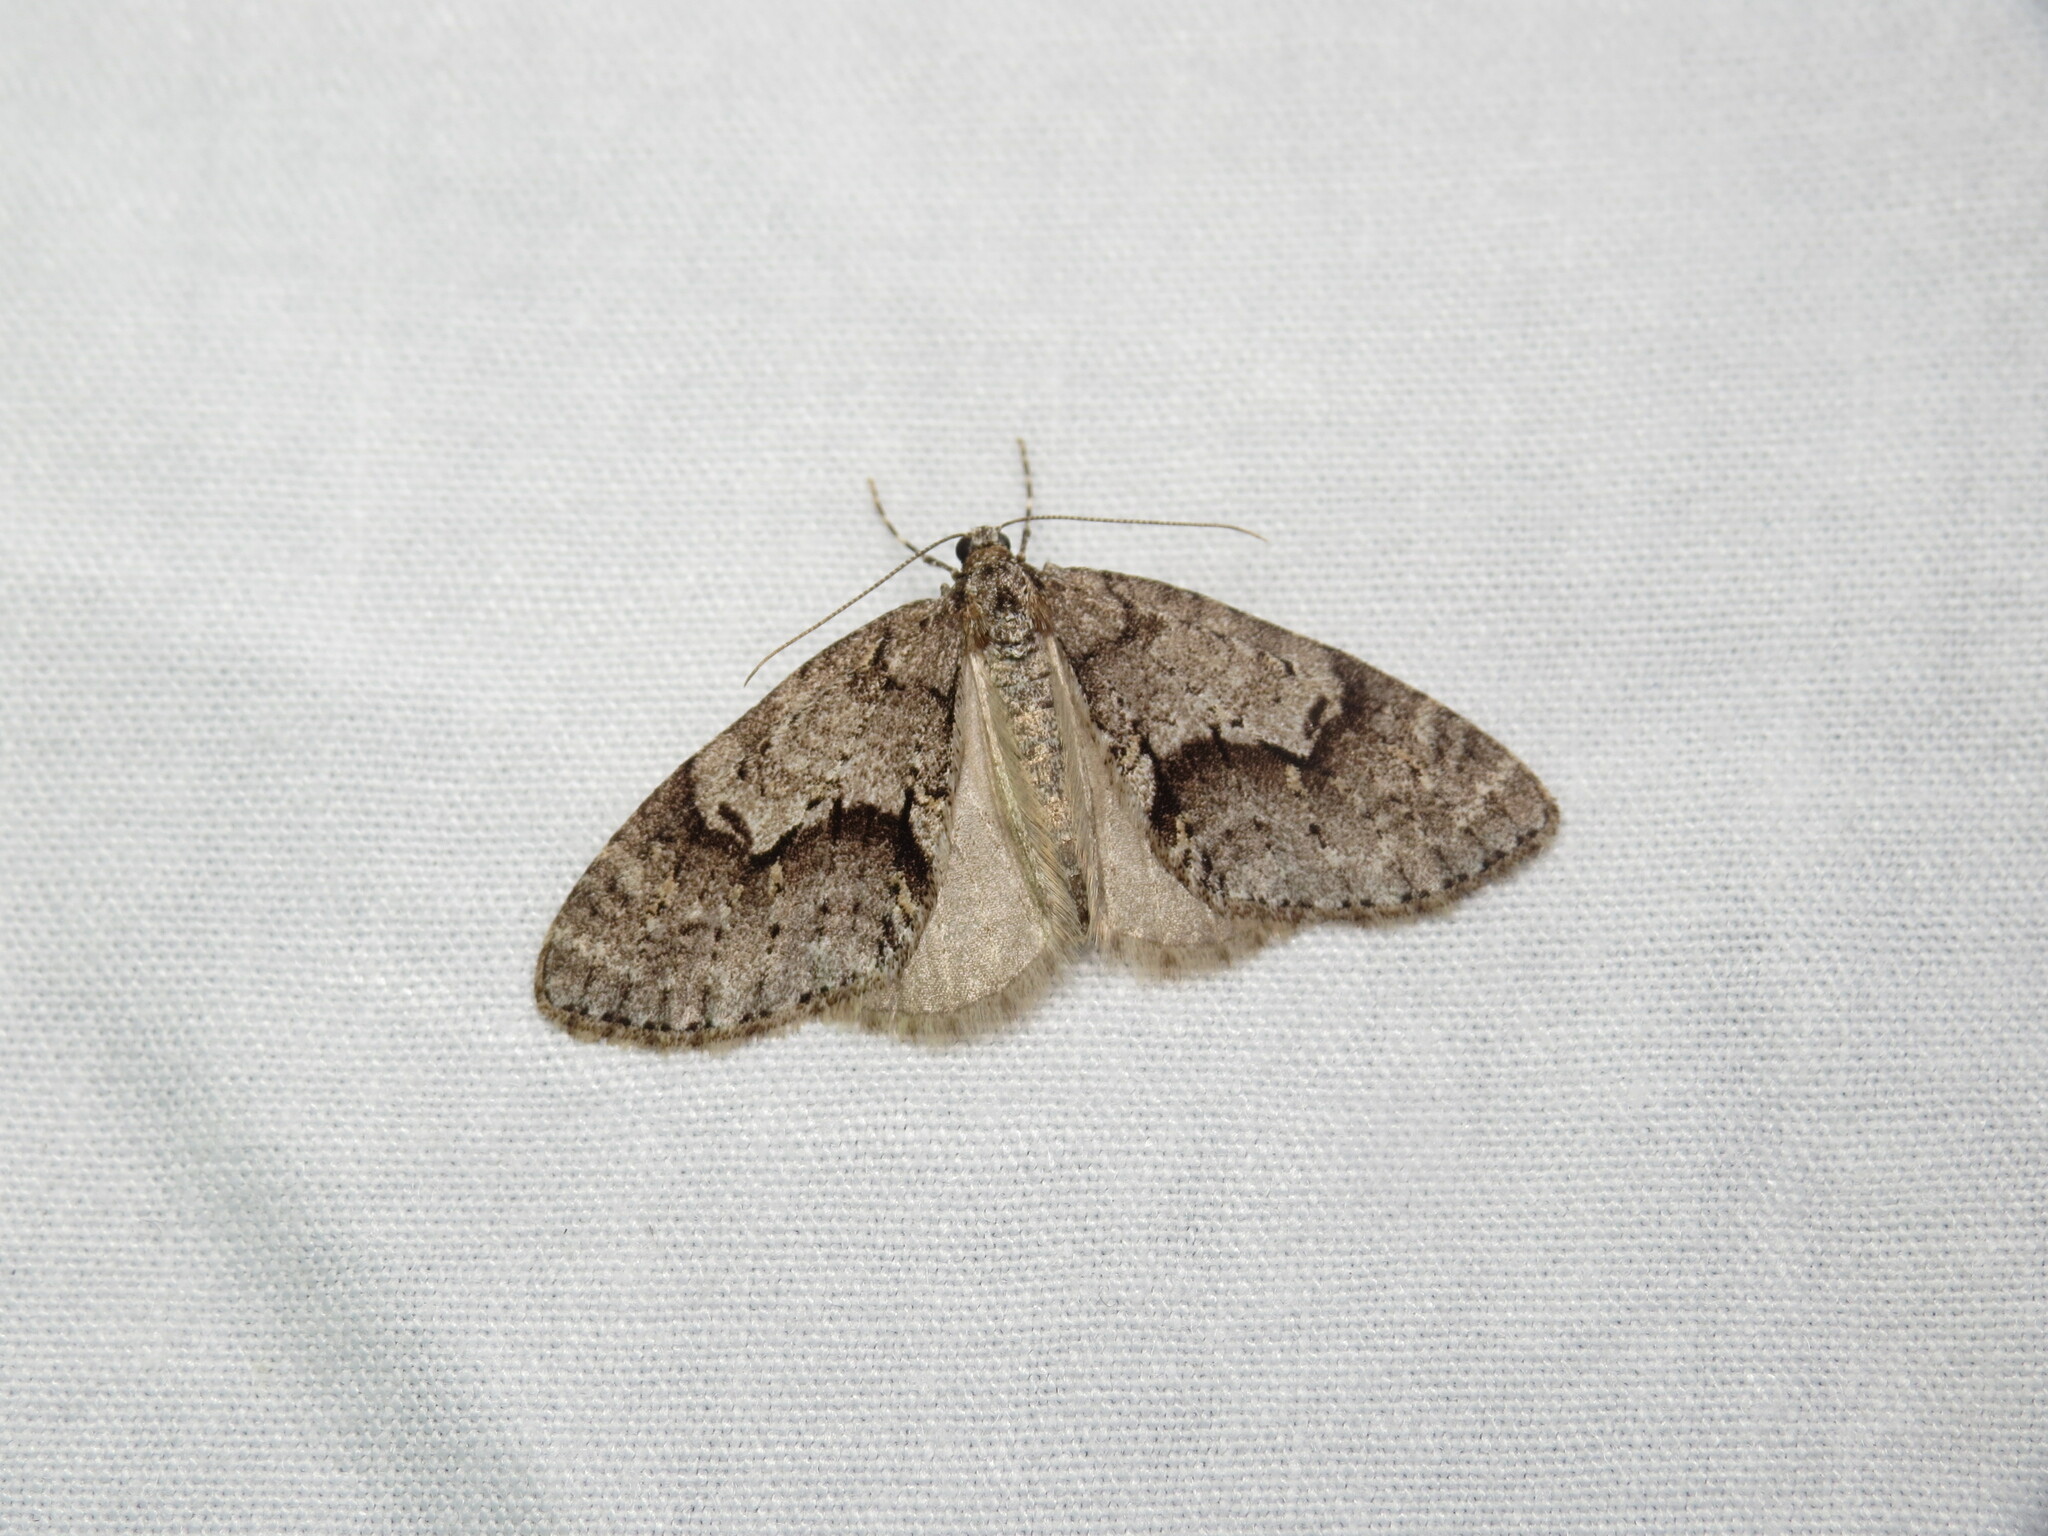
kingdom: Animalia
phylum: Arthropoda
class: Insecta
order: Lepidoptera
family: Geometridae
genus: Cladara
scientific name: Cladara limitaria
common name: Mottled gray carpet
